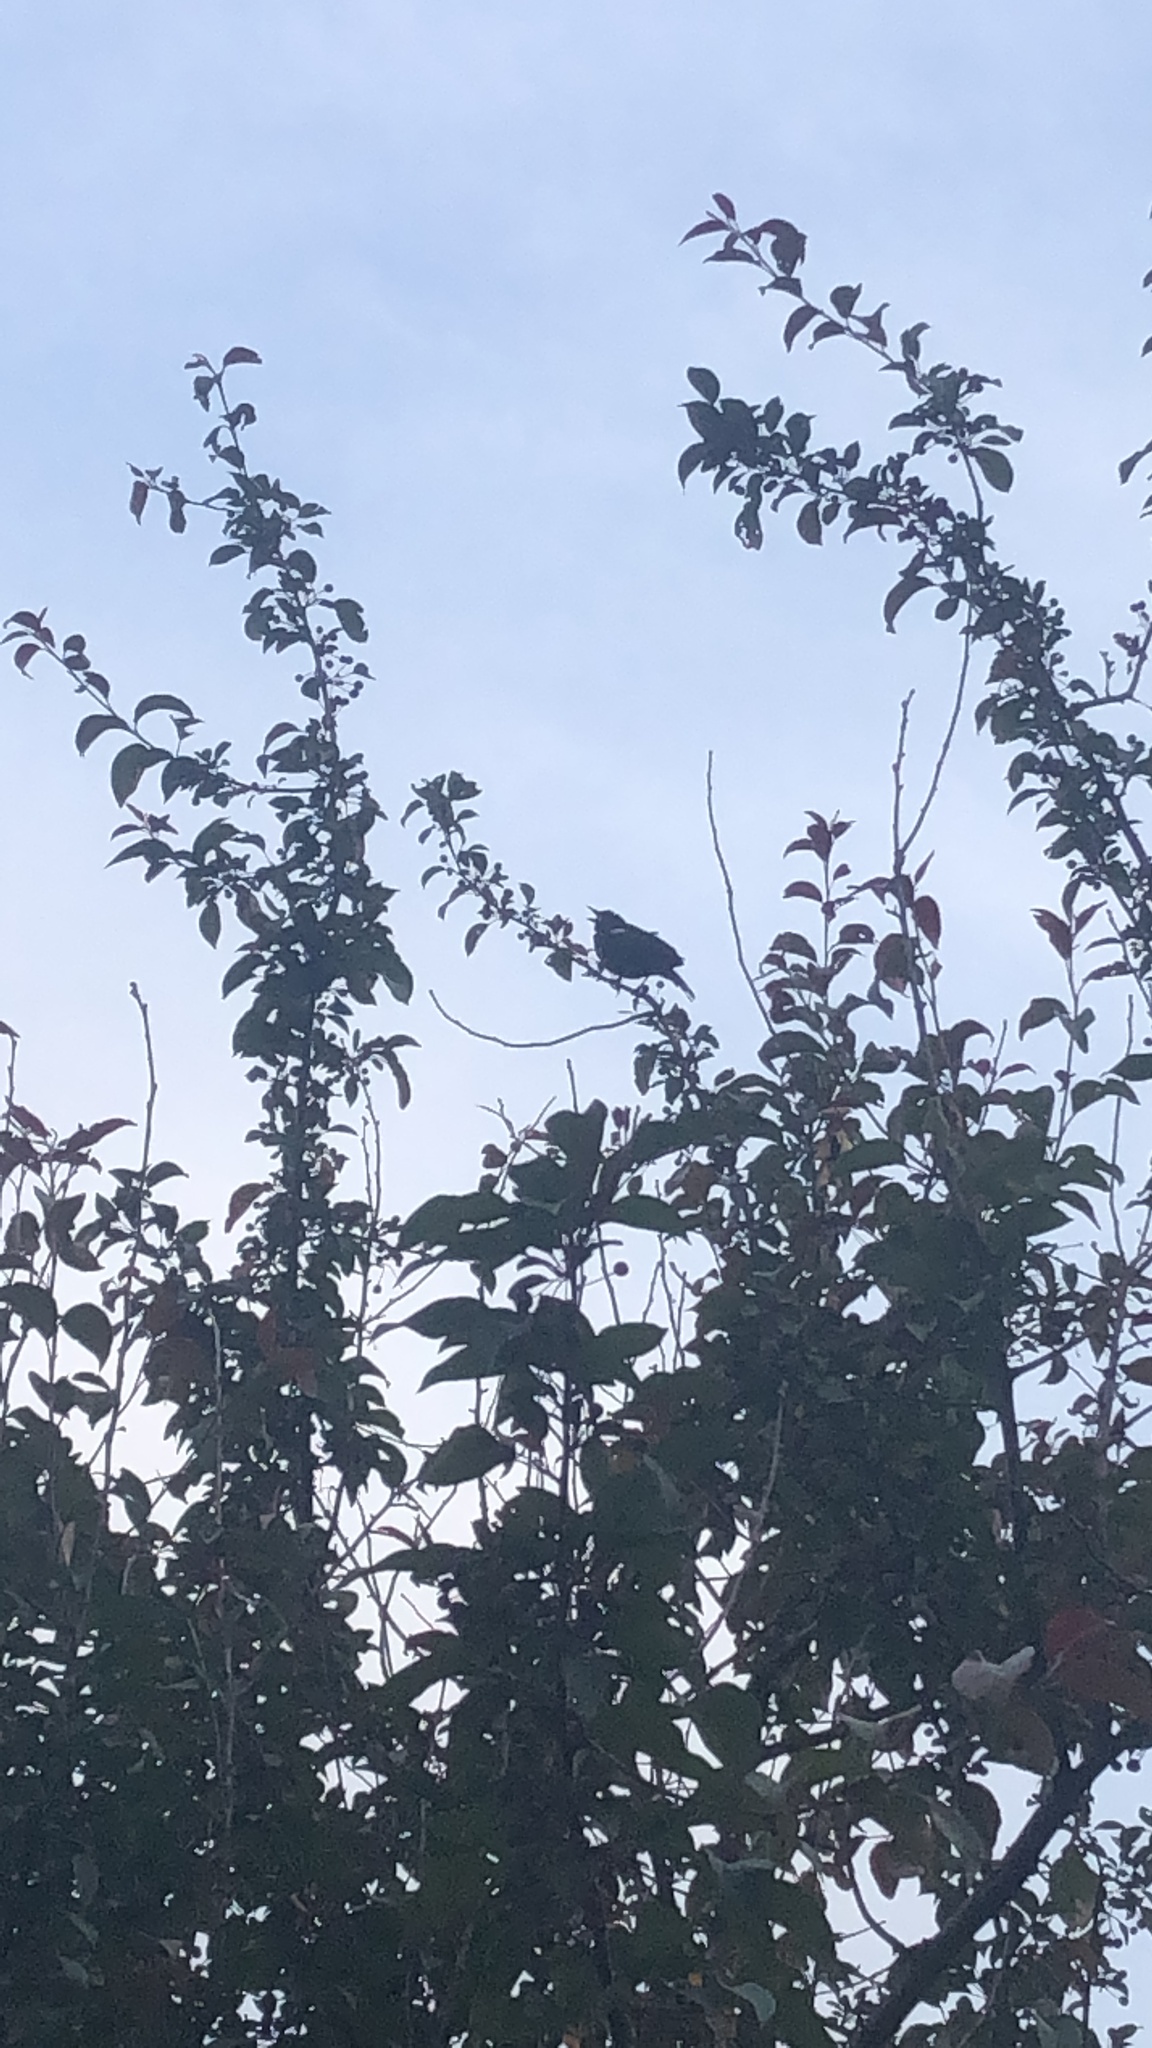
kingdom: Animalia
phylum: Chordata
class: Aves
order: Passeriformes
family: Icteridae
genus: Agelaius
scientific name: Agelaius phoeniceus
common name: Red-winged blackbird
